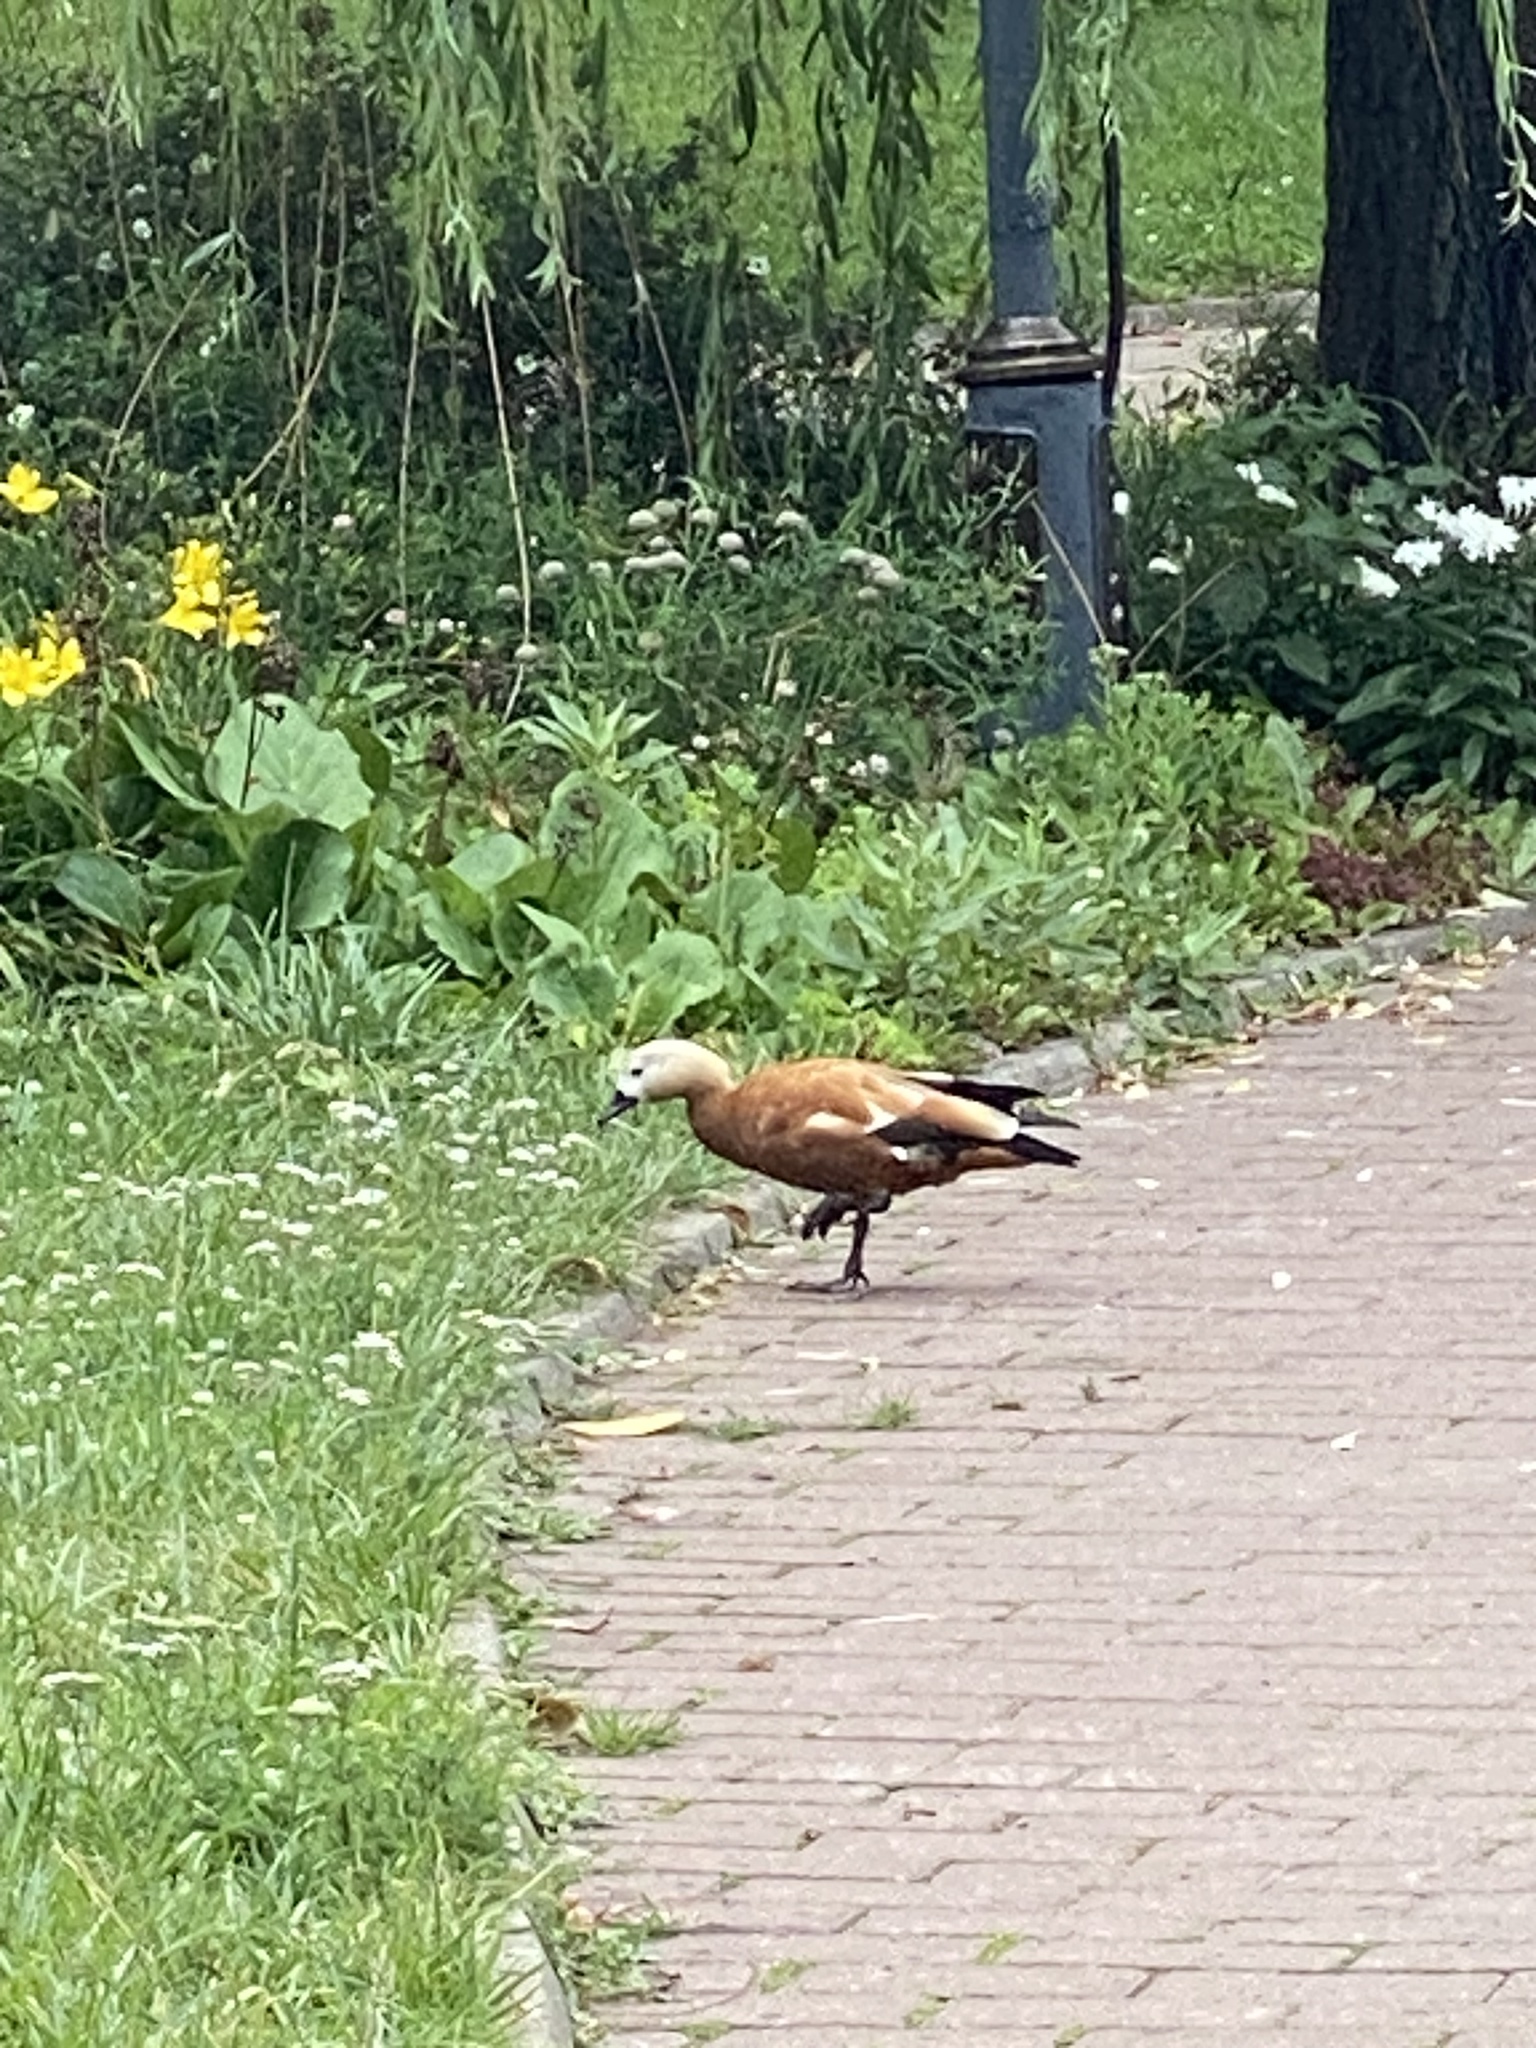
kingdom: Animalia
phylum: Chordata
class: Aves
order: Anseriformes
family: Anatidae
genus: Tadorna
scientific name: Tadorna ferruginea
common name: Ruddy shelduck
